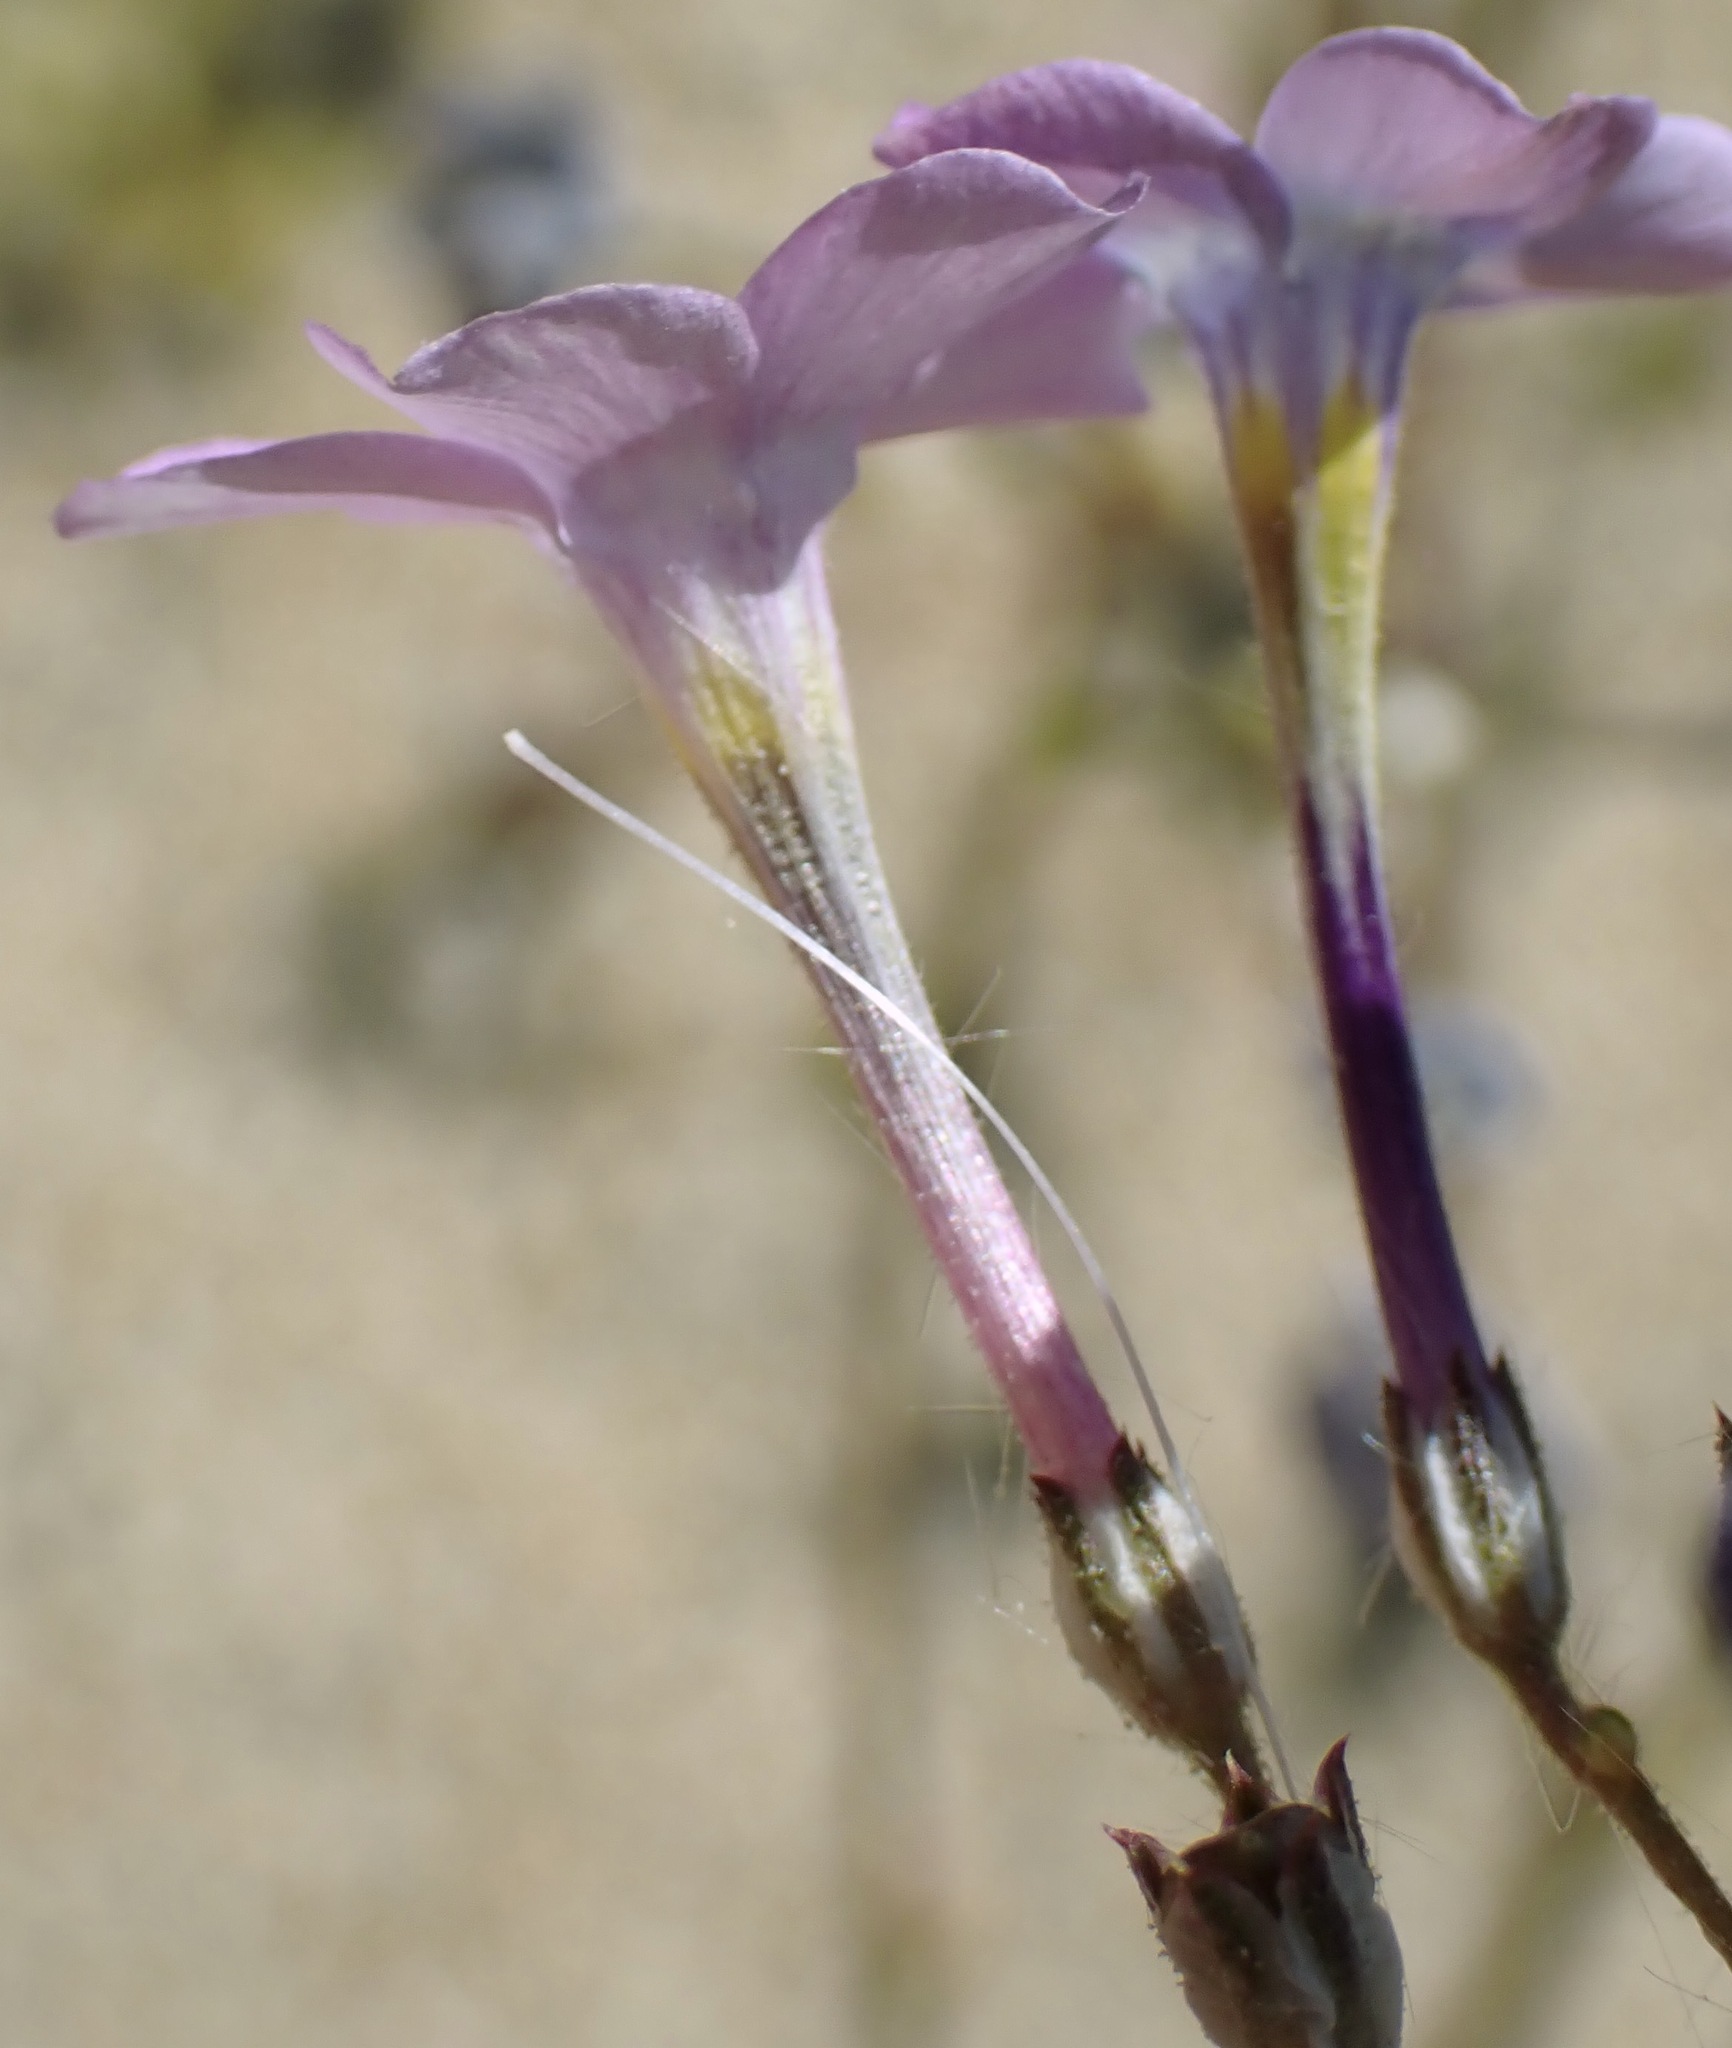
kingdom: Plantae
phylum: Tracheophyta
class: Magnoliopsida
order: Ericales
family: Polemoniaceae
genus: Gilia
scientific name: Gilia cana
